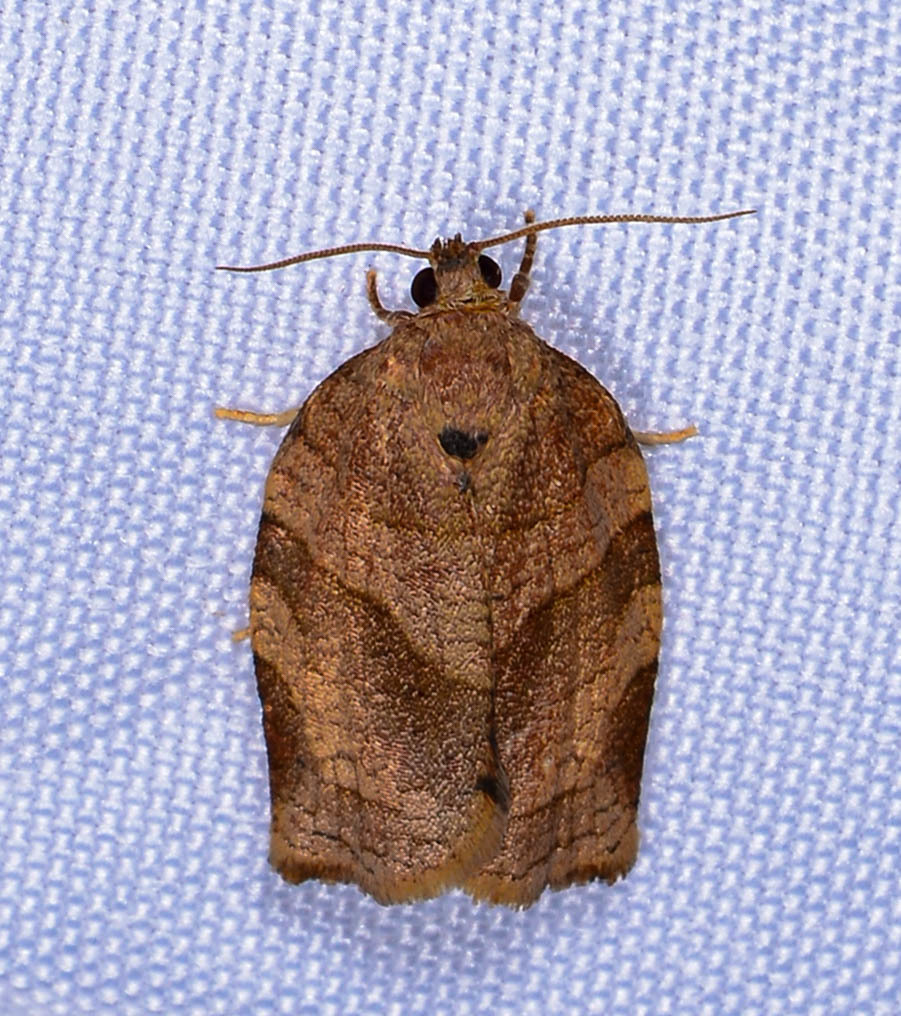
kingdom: Animalia
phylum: Arthropoda
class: Insecta
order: Lepidoptera
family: Tortricidae
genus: Choristoneura
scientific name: Choristoneura rosaceana
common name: Oblique-banded leafroller moth
